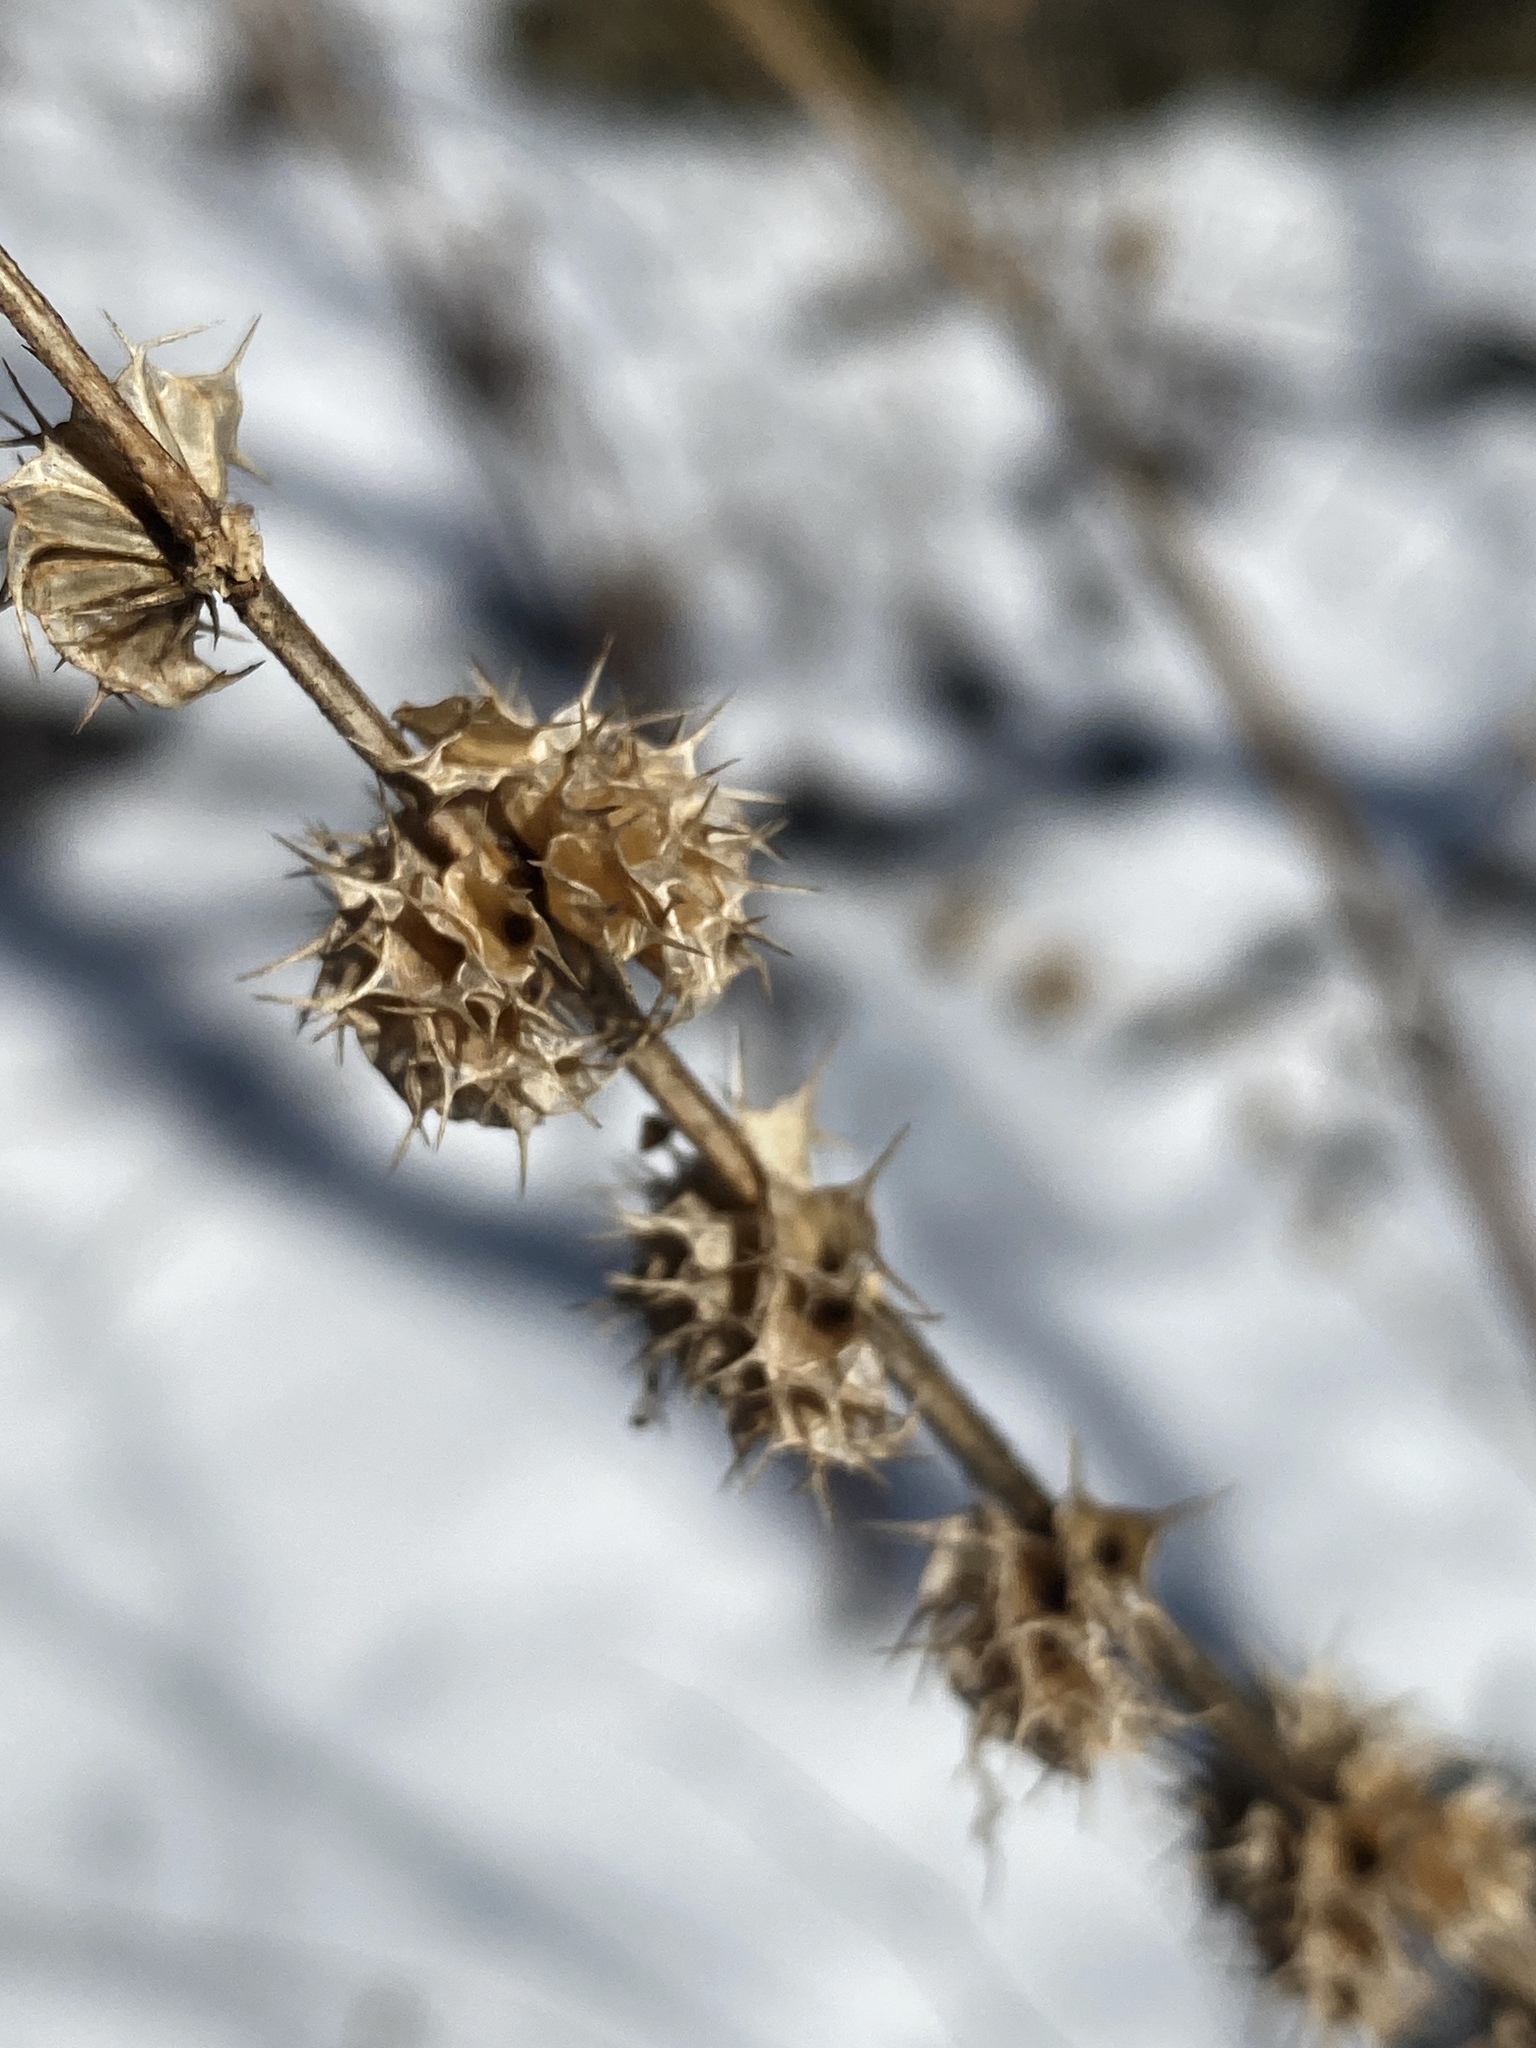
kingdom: Plantae
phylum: Tracheophyta
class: Magnoliopsida
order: Lamiales
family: Lamiaceae
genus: Leonurus
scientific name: Leonurus cardiaca
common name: Motherwort
